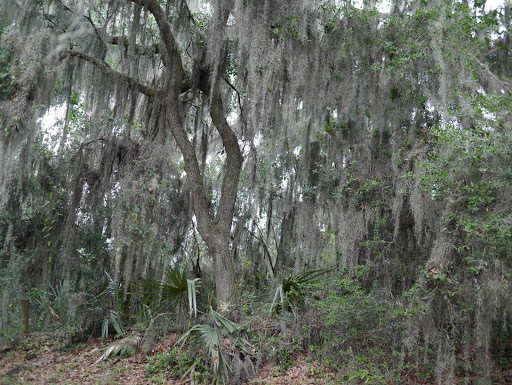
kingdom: Plantae
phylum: Tracheophyta
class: Liliopsida
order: Poales
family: Bromeliaceae
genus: Tillandsia
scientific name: Tillandsia usneoides
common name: Spanish moss
